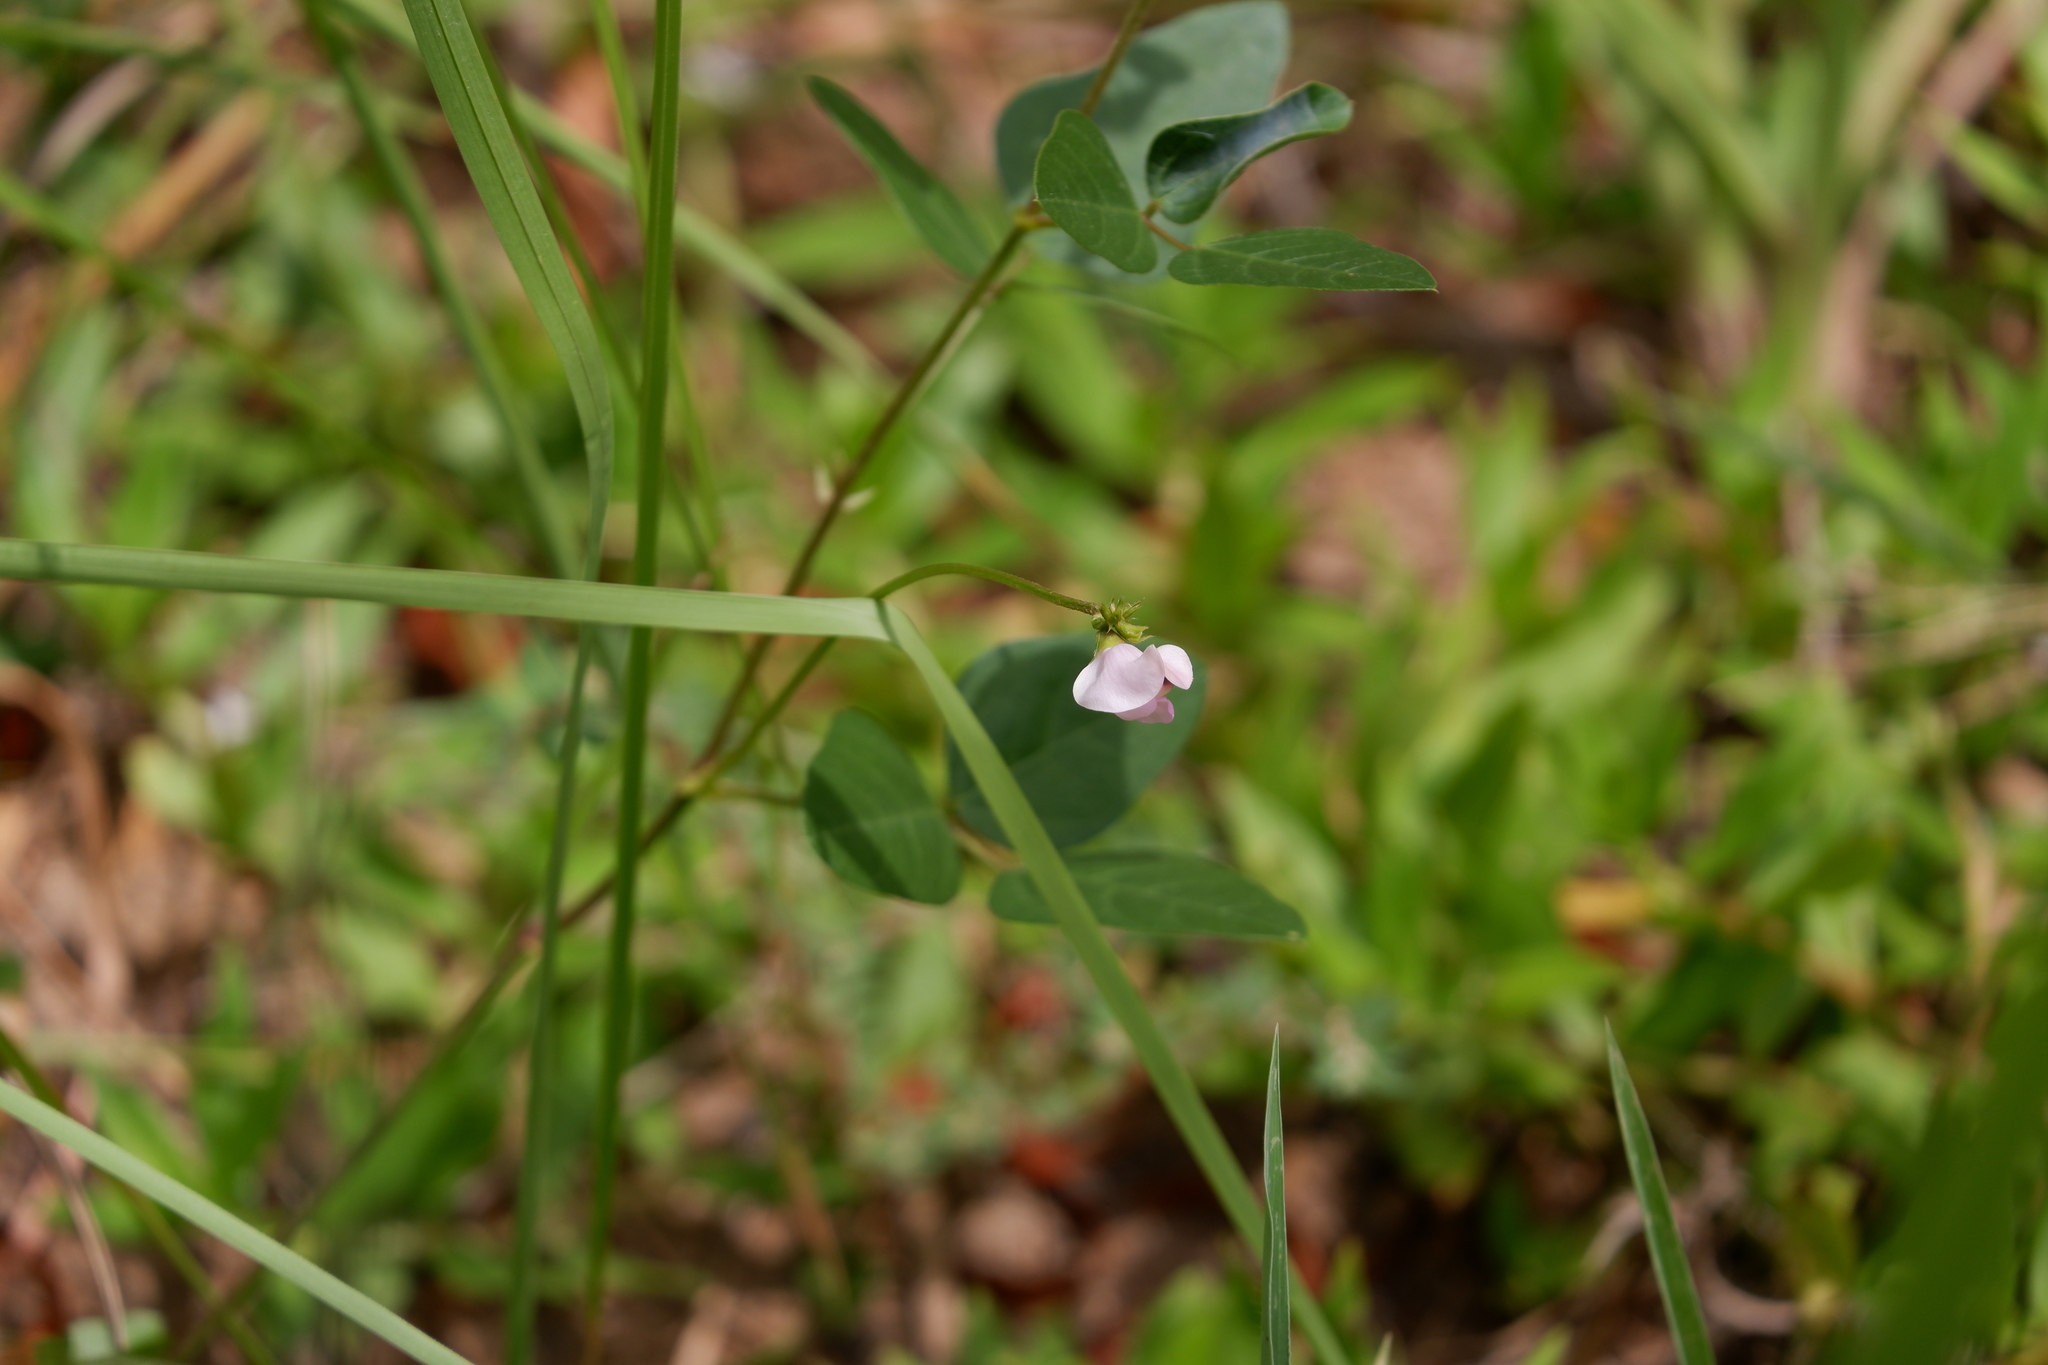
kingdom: Plantae
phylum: Tracheophyta
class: Magnoliopsida
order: Fabales
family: Fabaceae
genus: Strophostyles
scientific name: Strophostyles helvola
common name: Trailing wild bean
